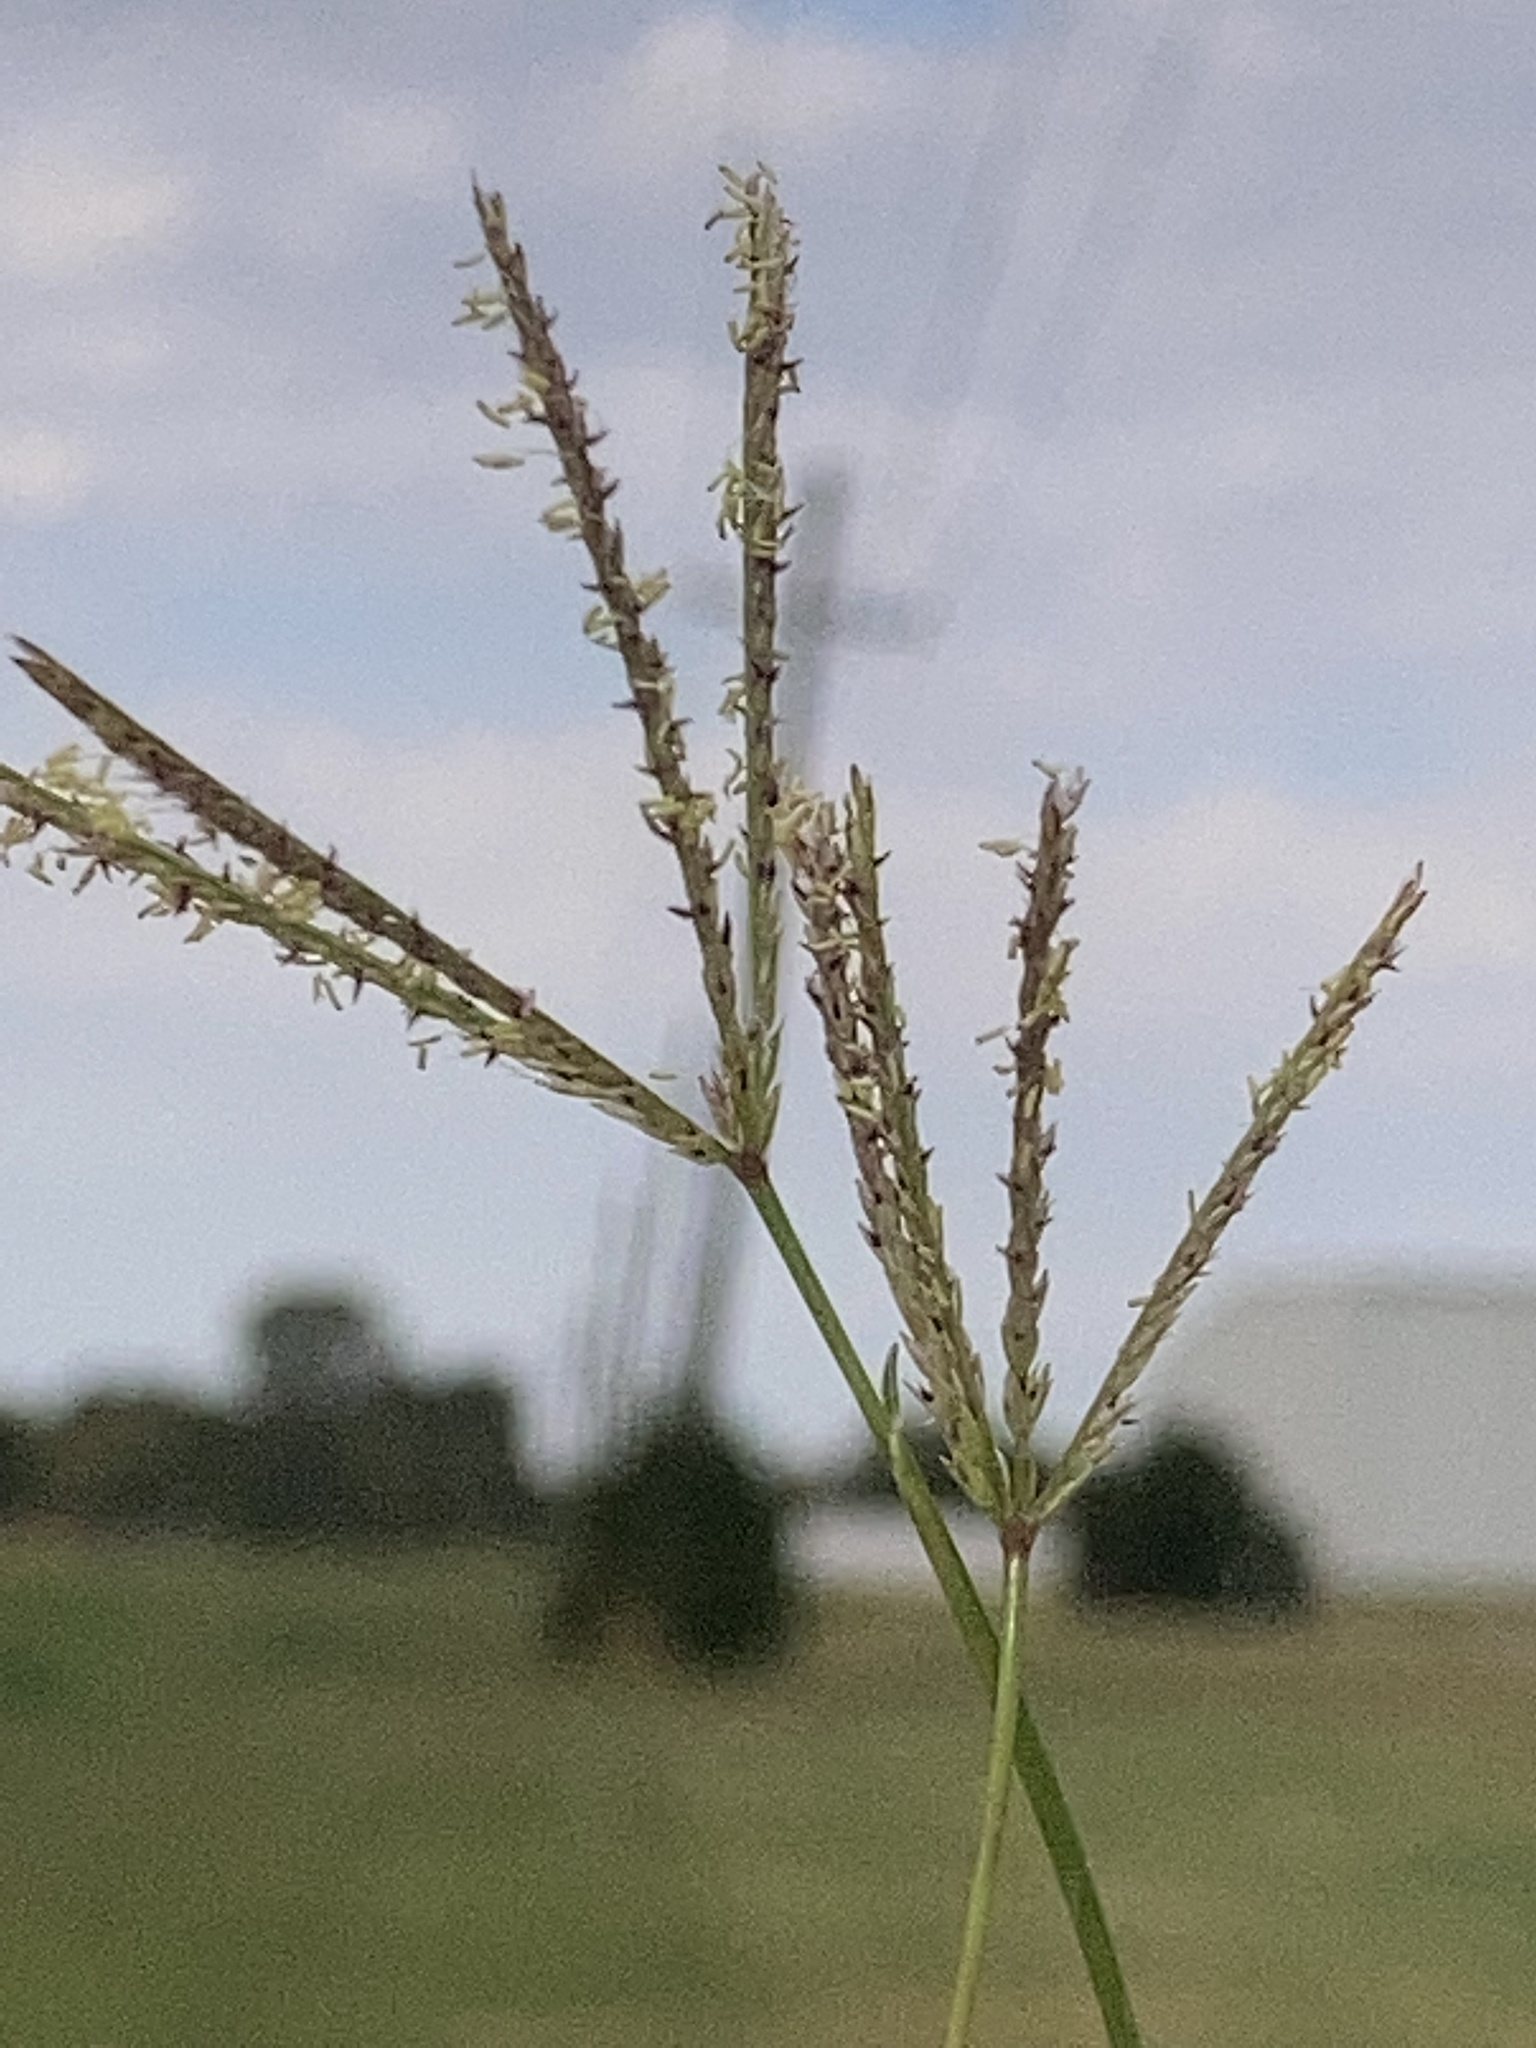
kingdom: Plantae
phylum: Tracheophyta
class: Liliopsida
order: Poales
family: Poaceae
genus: Cynodon
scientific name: Cynodon dactylon
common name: Bermuda grass
